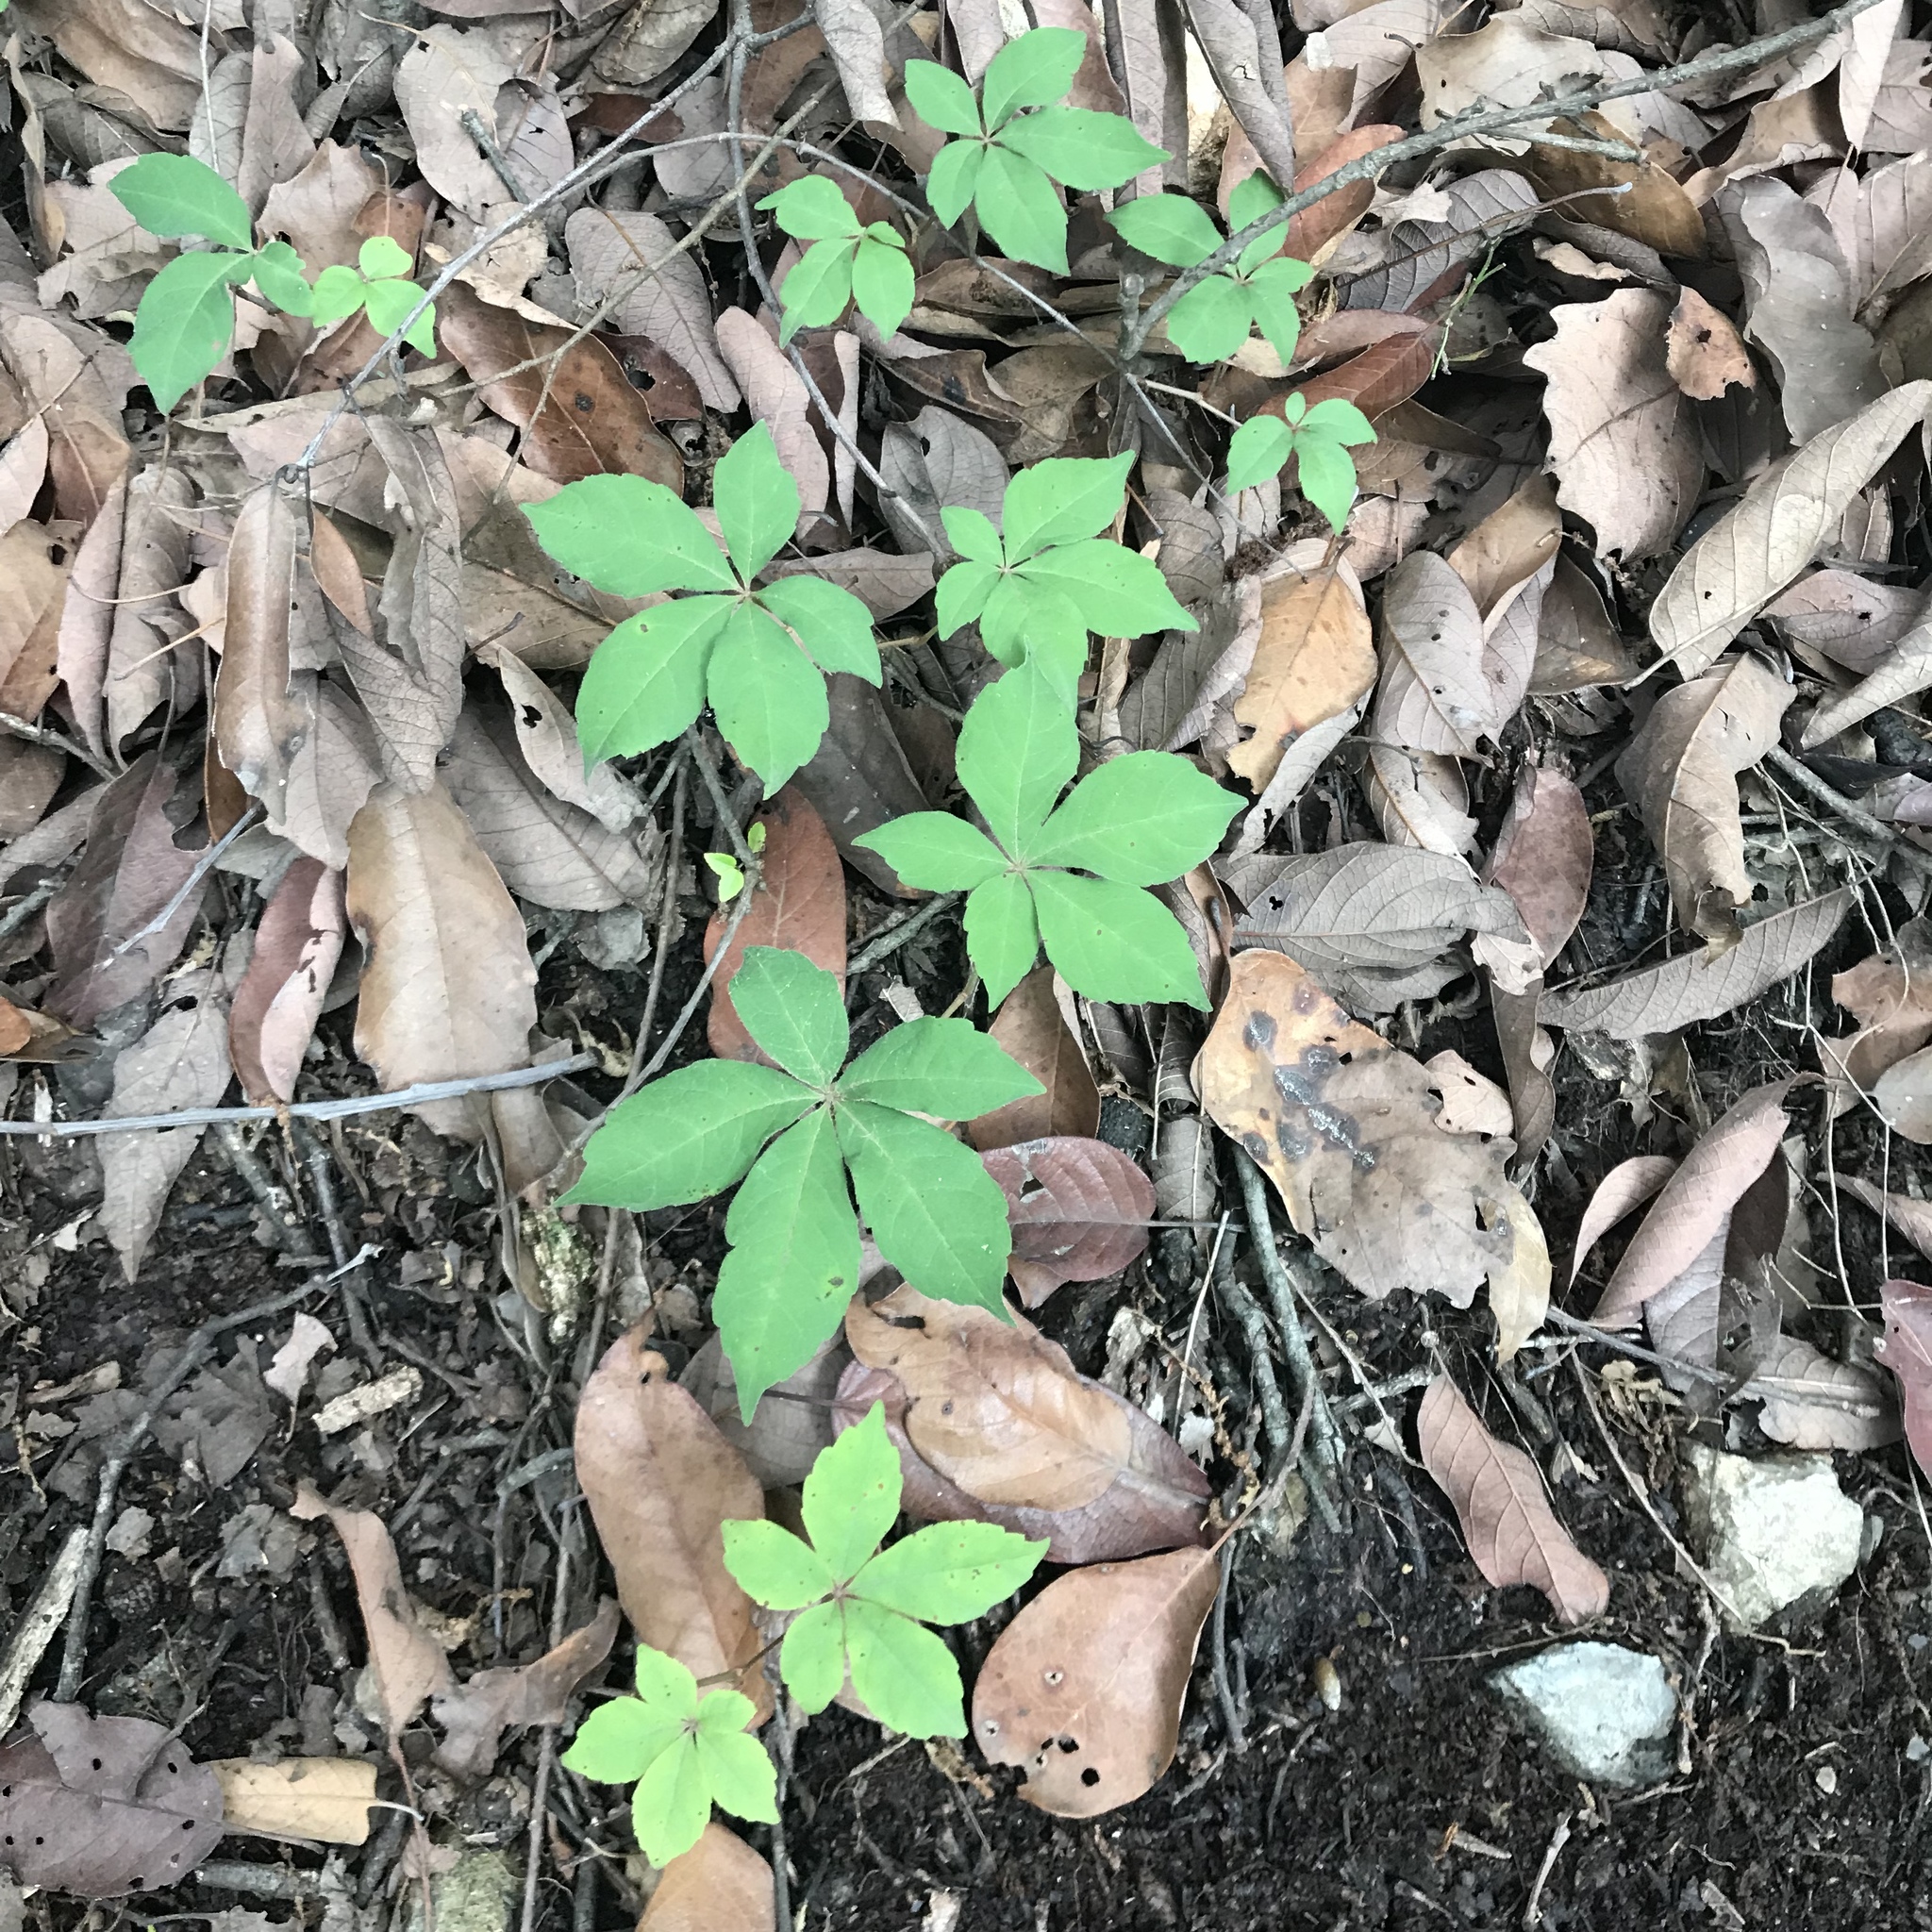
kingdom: Plantae
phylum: Tracheophyta
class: Magnoliopsida
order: Vitales
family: Vitaceae
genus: Parthenocissus
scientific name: Parthenocissus quinquefolia
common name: Virginia-creeper
